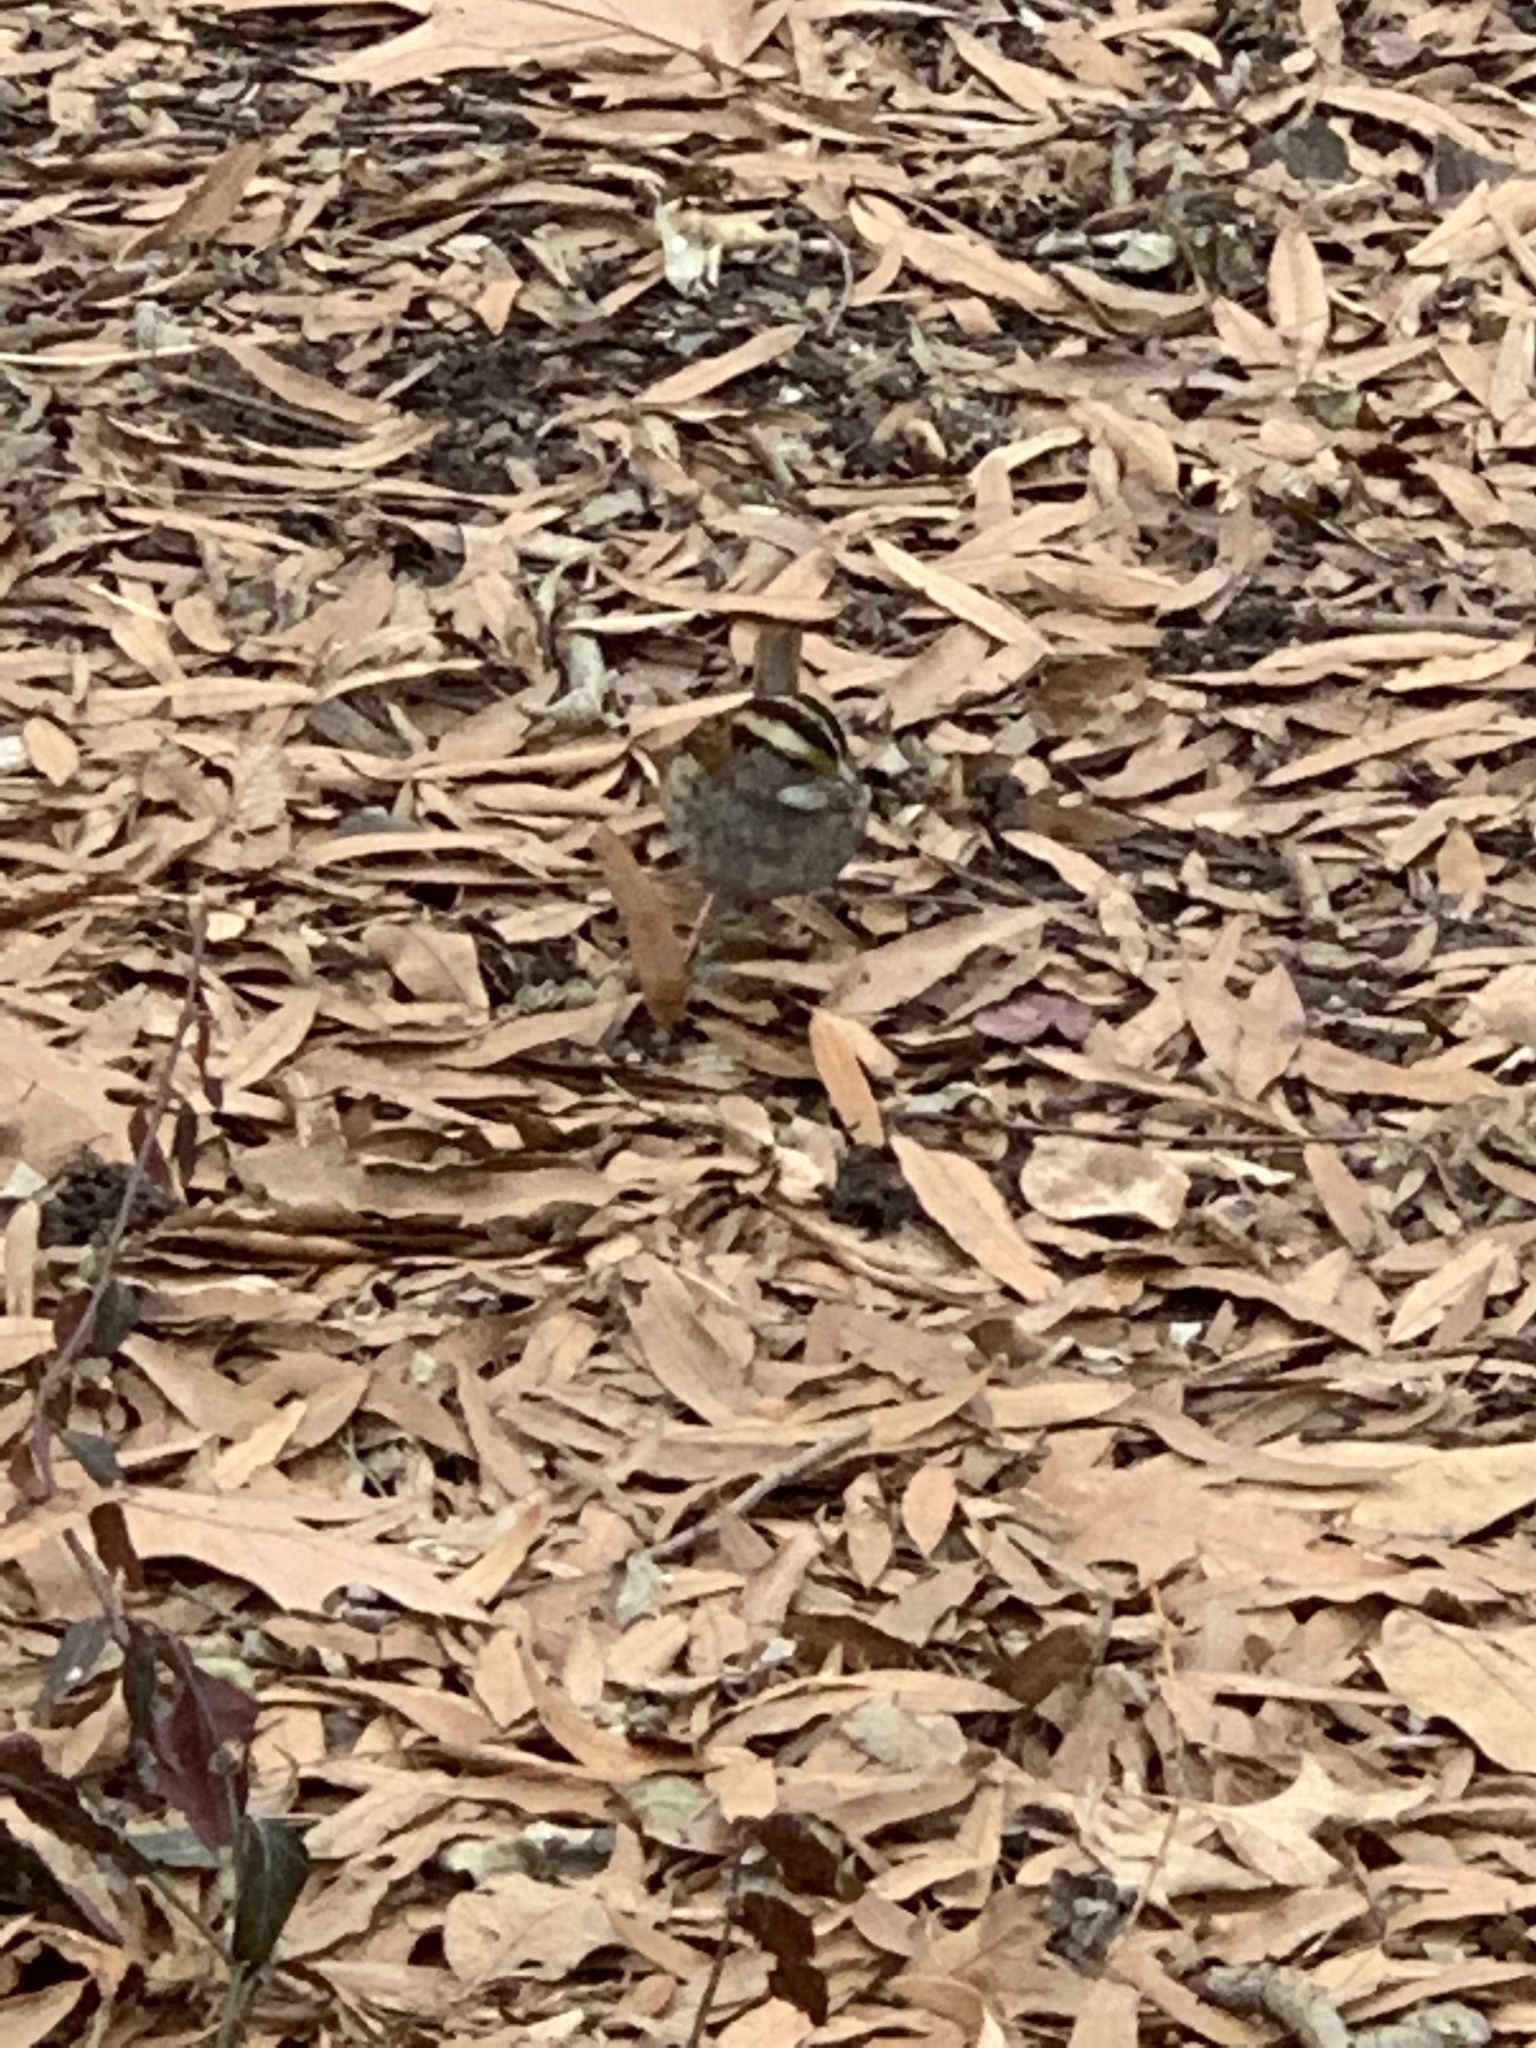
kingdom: Animalia
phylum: Chordata
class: Aves
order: Passeriformes
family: Passerellidae
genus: Zonotrichia
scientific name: Zonotrichia albicollis
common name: White-throated sparrow
